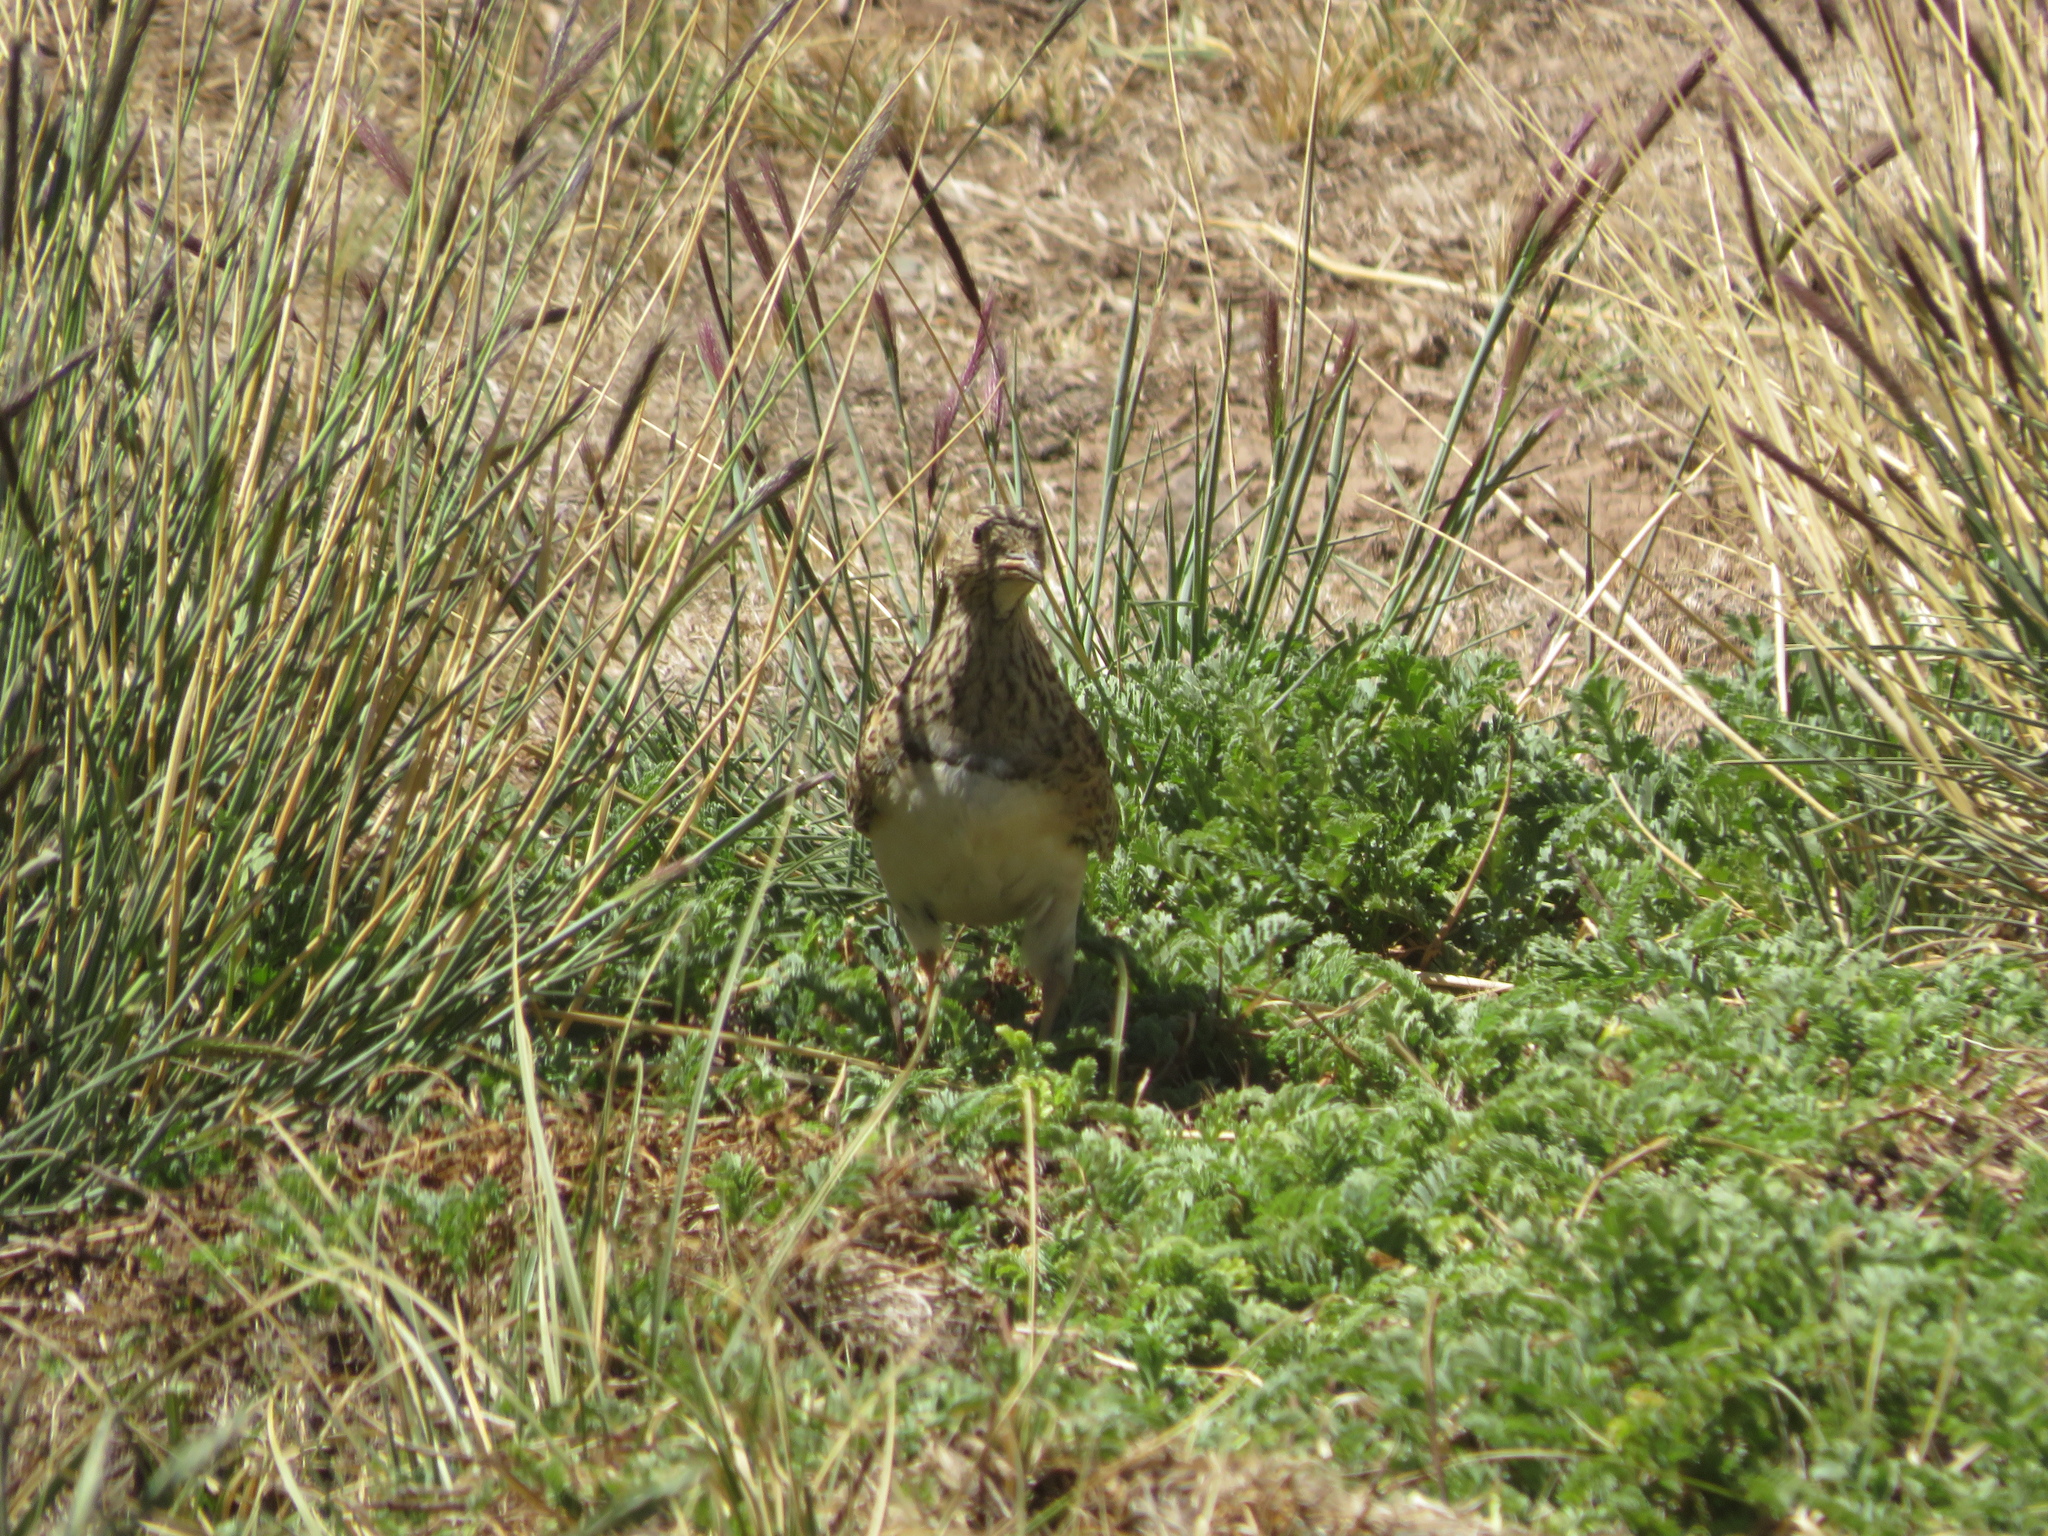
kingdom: Animalia
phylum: Chordata
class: Aves
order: Charadriiformes
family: Thinocoridae
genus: Thinocorus
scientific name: Thinocorus orbignyianus
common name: Grey-breasted seedsnipe
